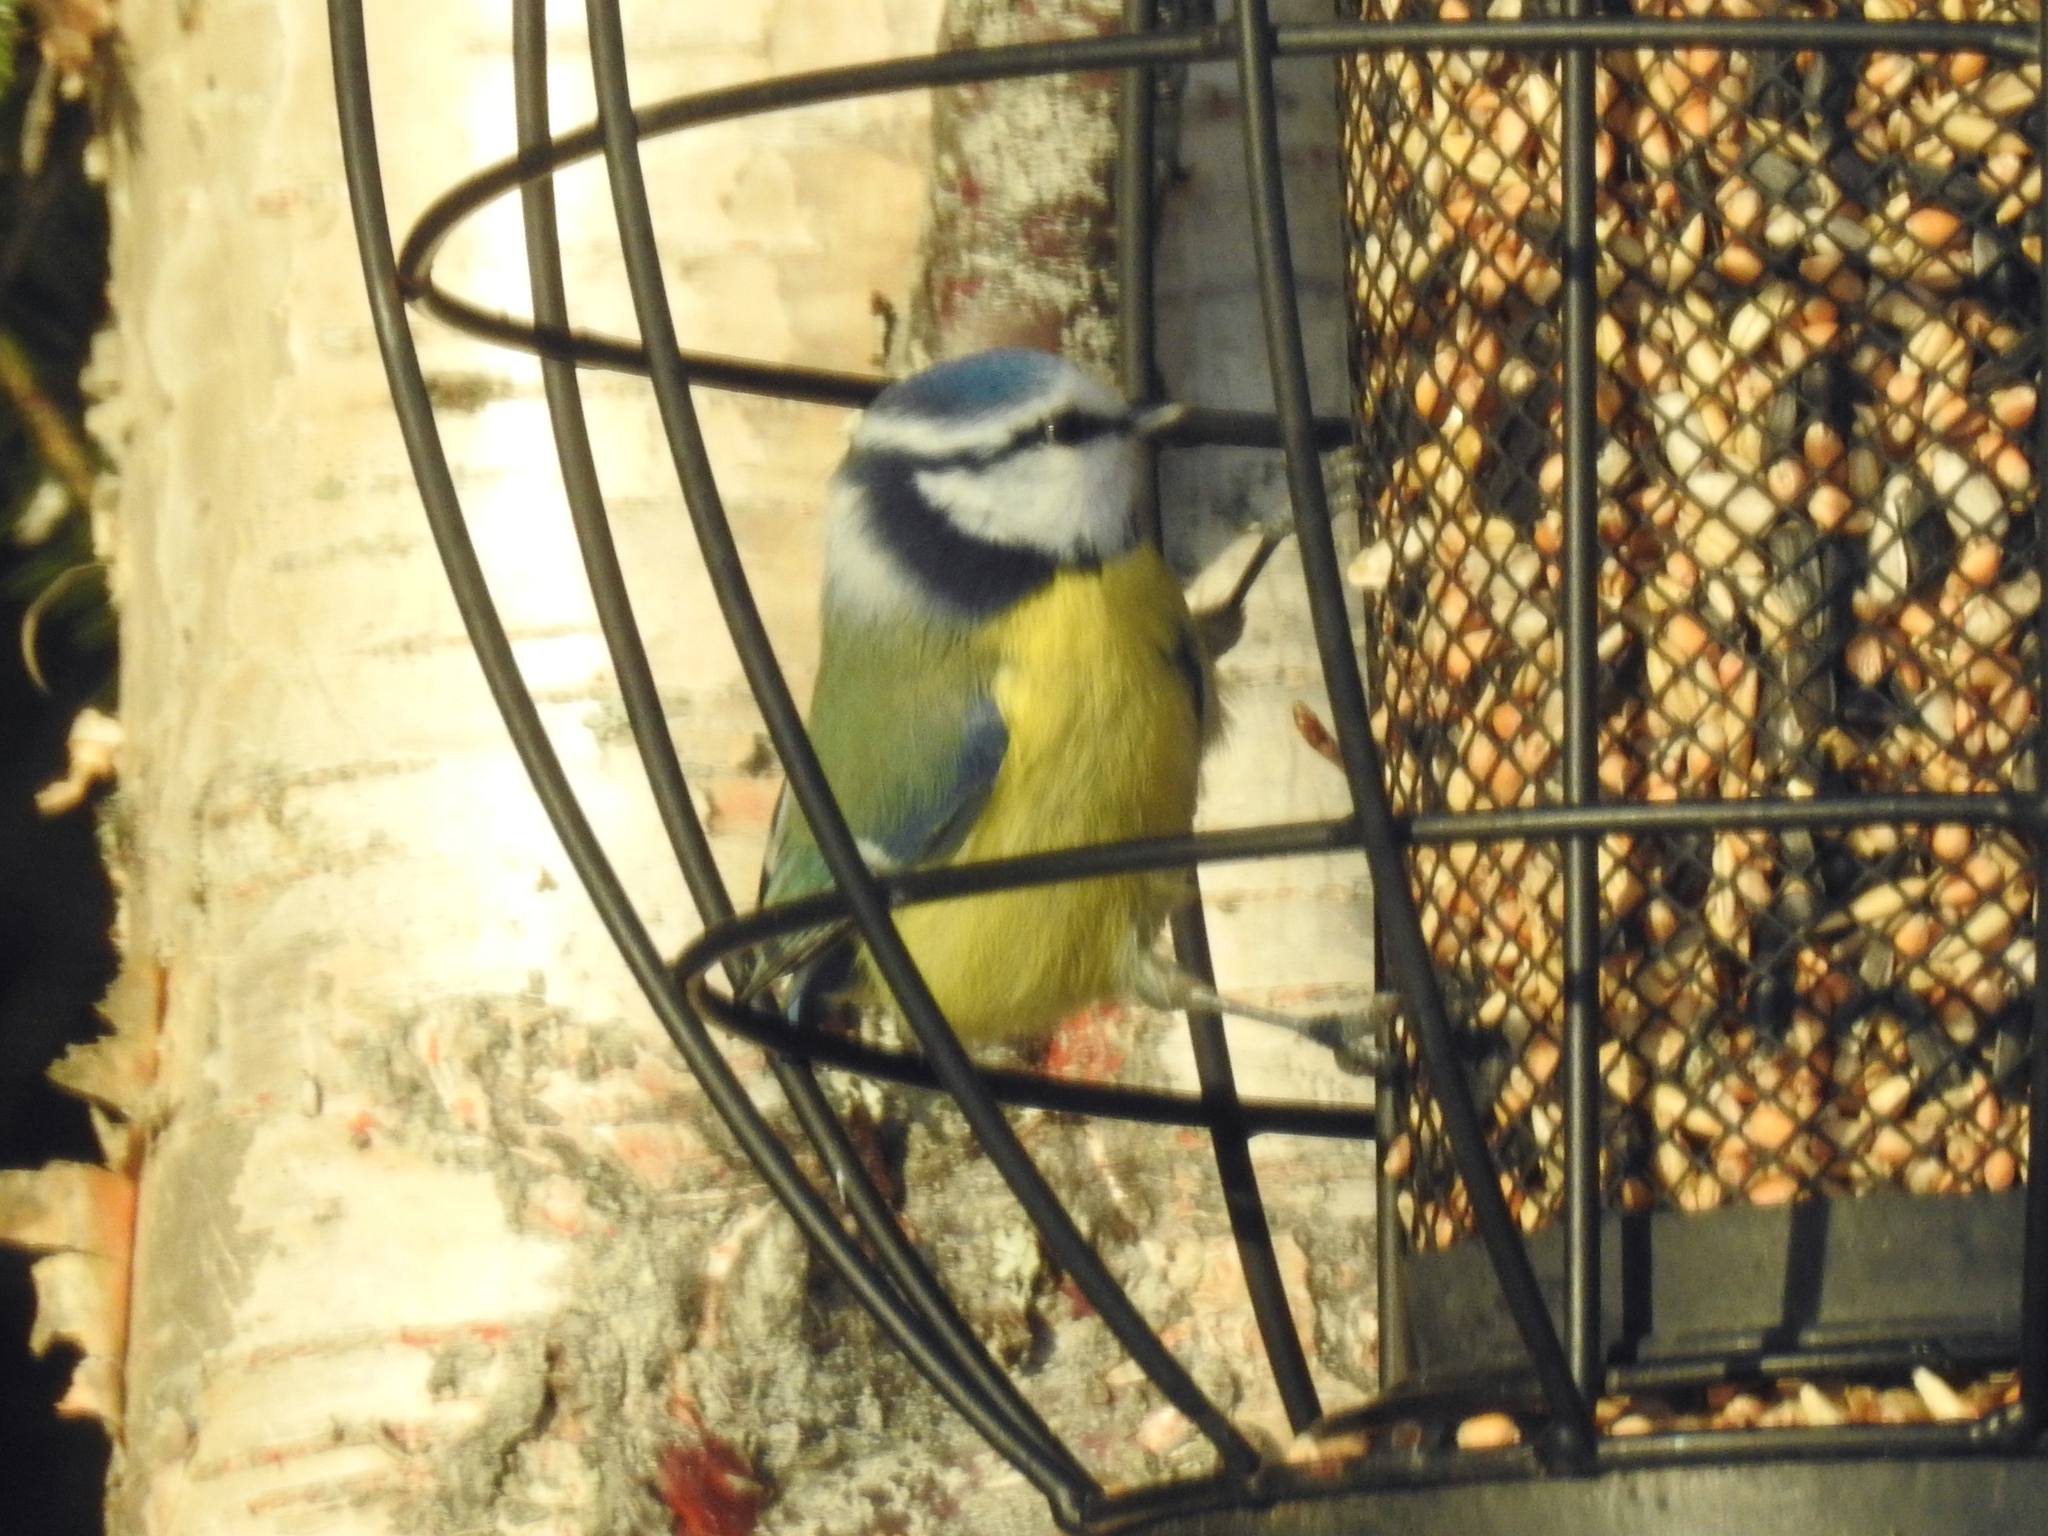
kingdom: Animalia
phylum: Chordata
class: Aves
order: Passeriformes
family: Paridae
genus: Cyanistes
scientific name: Cyanistes caeruleus
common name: Eurasian blue tit
